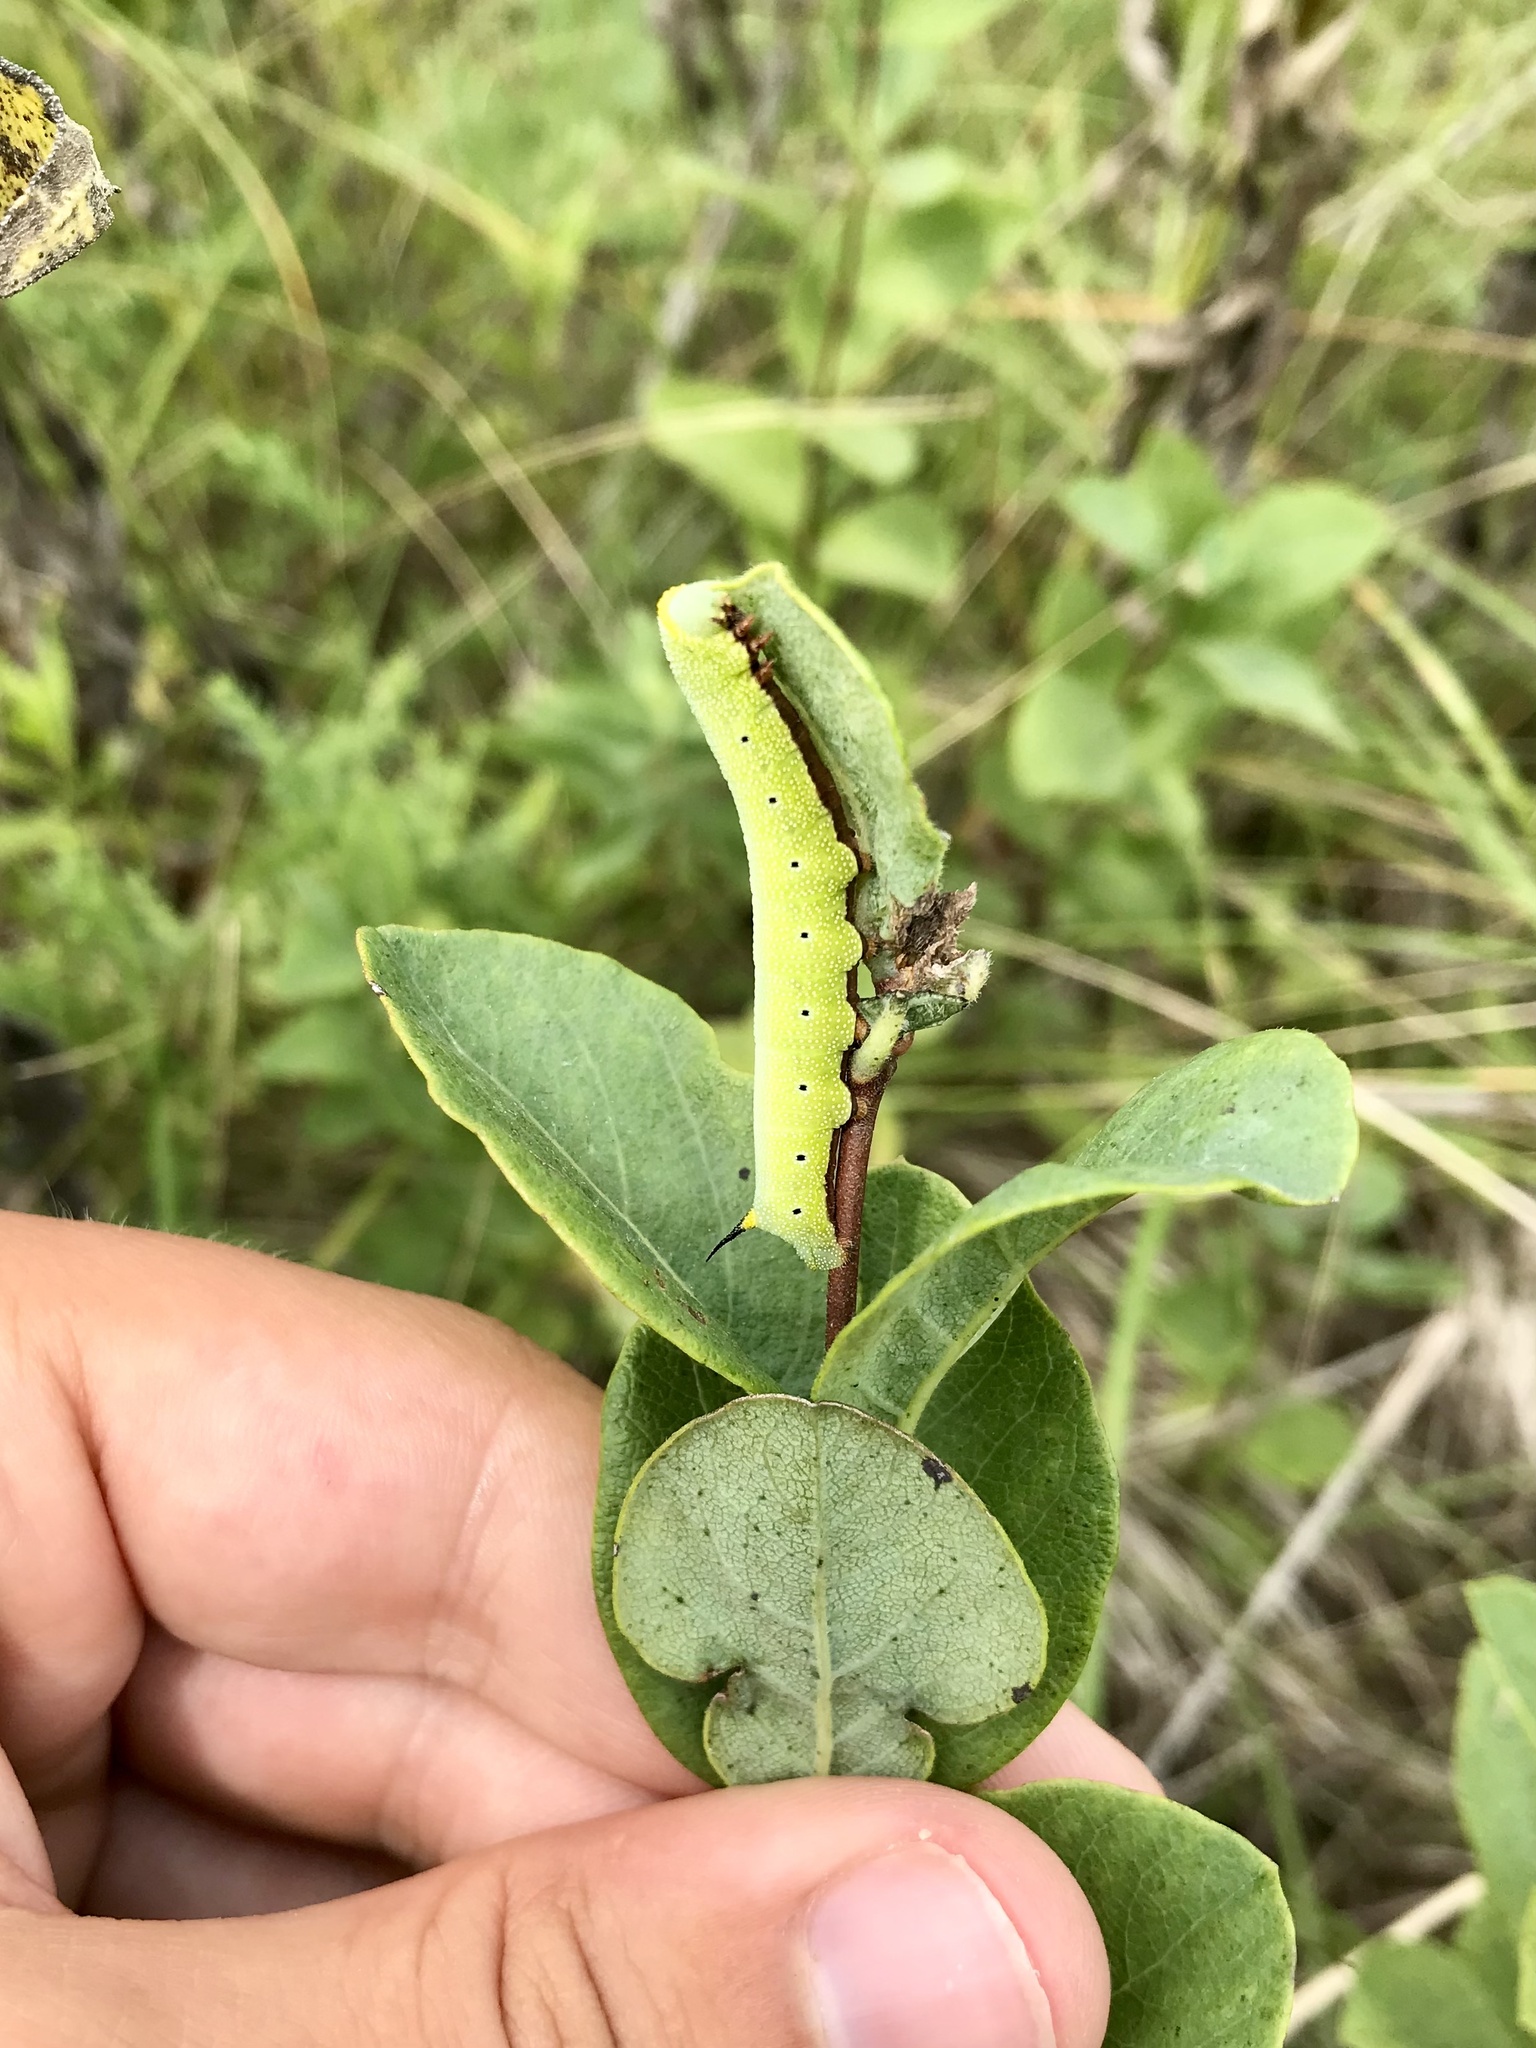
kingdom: Animalia
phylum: Arthropoda
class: Insecta
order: Lepidoptera
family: Sphingidae
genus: Hemaris
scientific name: Hemaris diffinis
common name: Bumblebee moth
